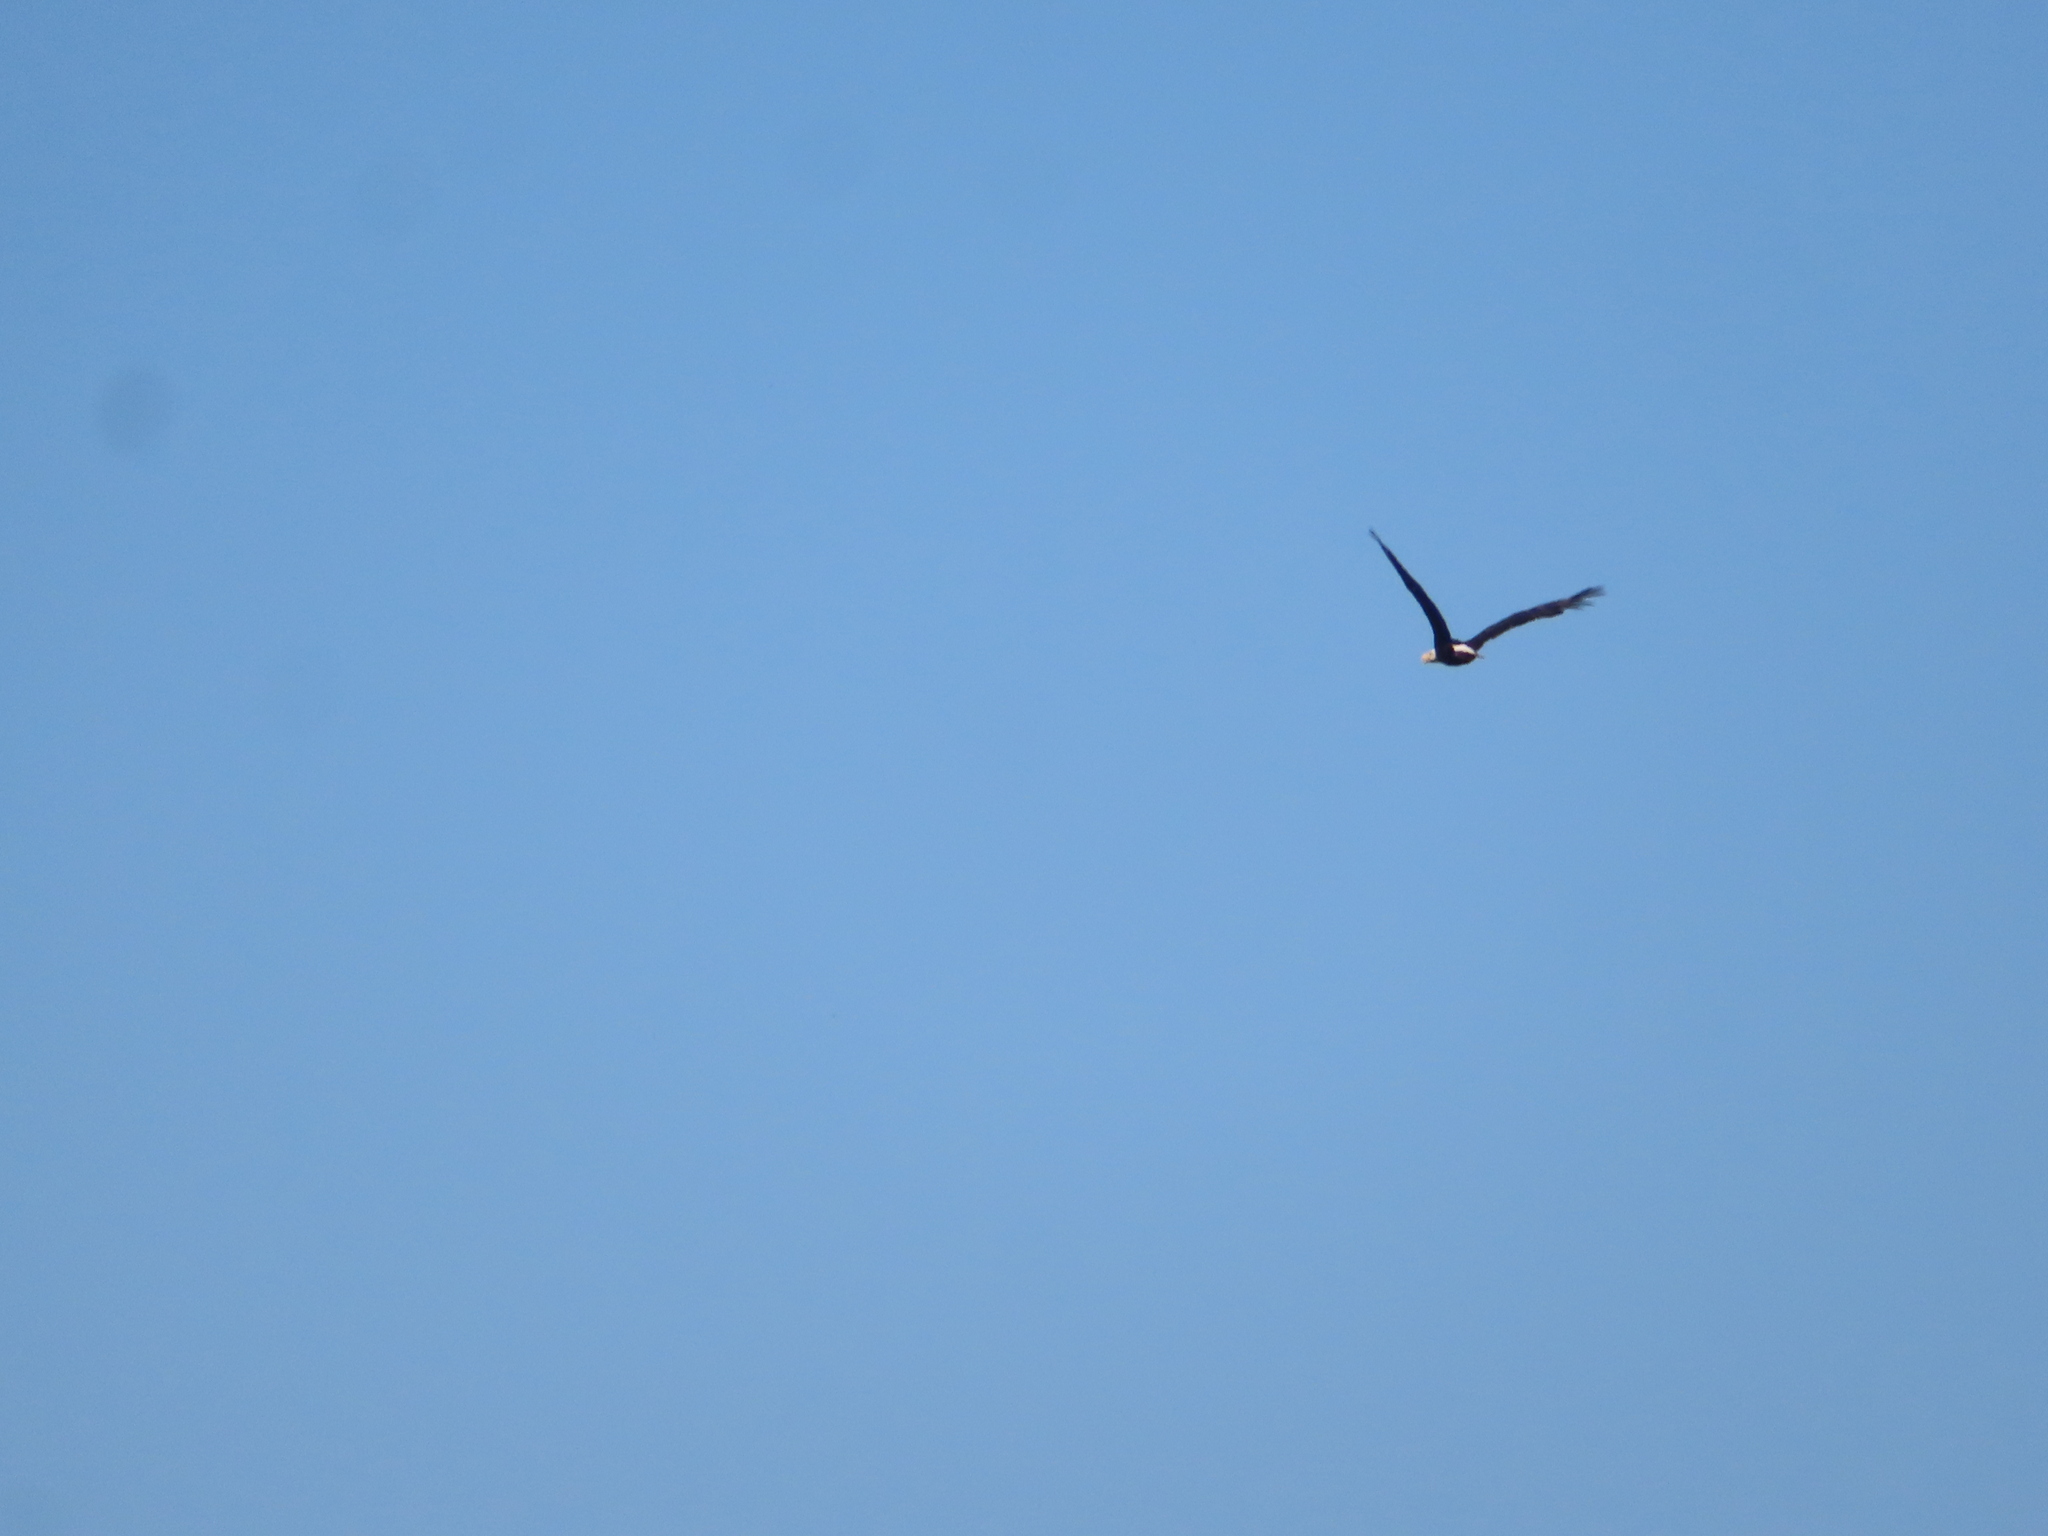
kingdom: Animalia
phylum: Chordata
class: Aves
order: Accipitriformes
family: Accipitridae
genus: Haliaeetus
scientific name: Haliaeetus leucocephalus
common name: Bald eagle
